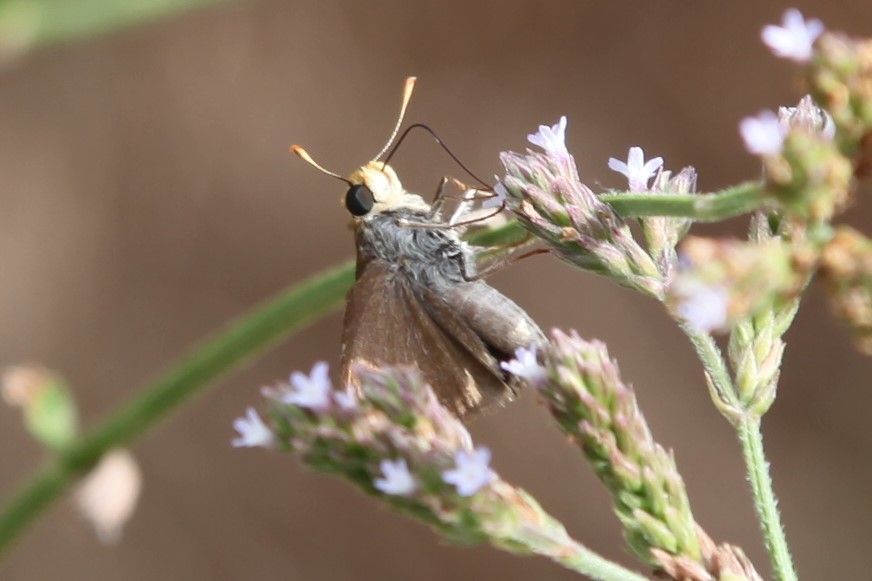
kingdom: Animalia
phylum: Arthropoda
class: Insecta
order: Lepidoptera
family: Hesperiidae
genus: Euphyes
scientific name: Euphyes vestris
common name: Dun skipper
